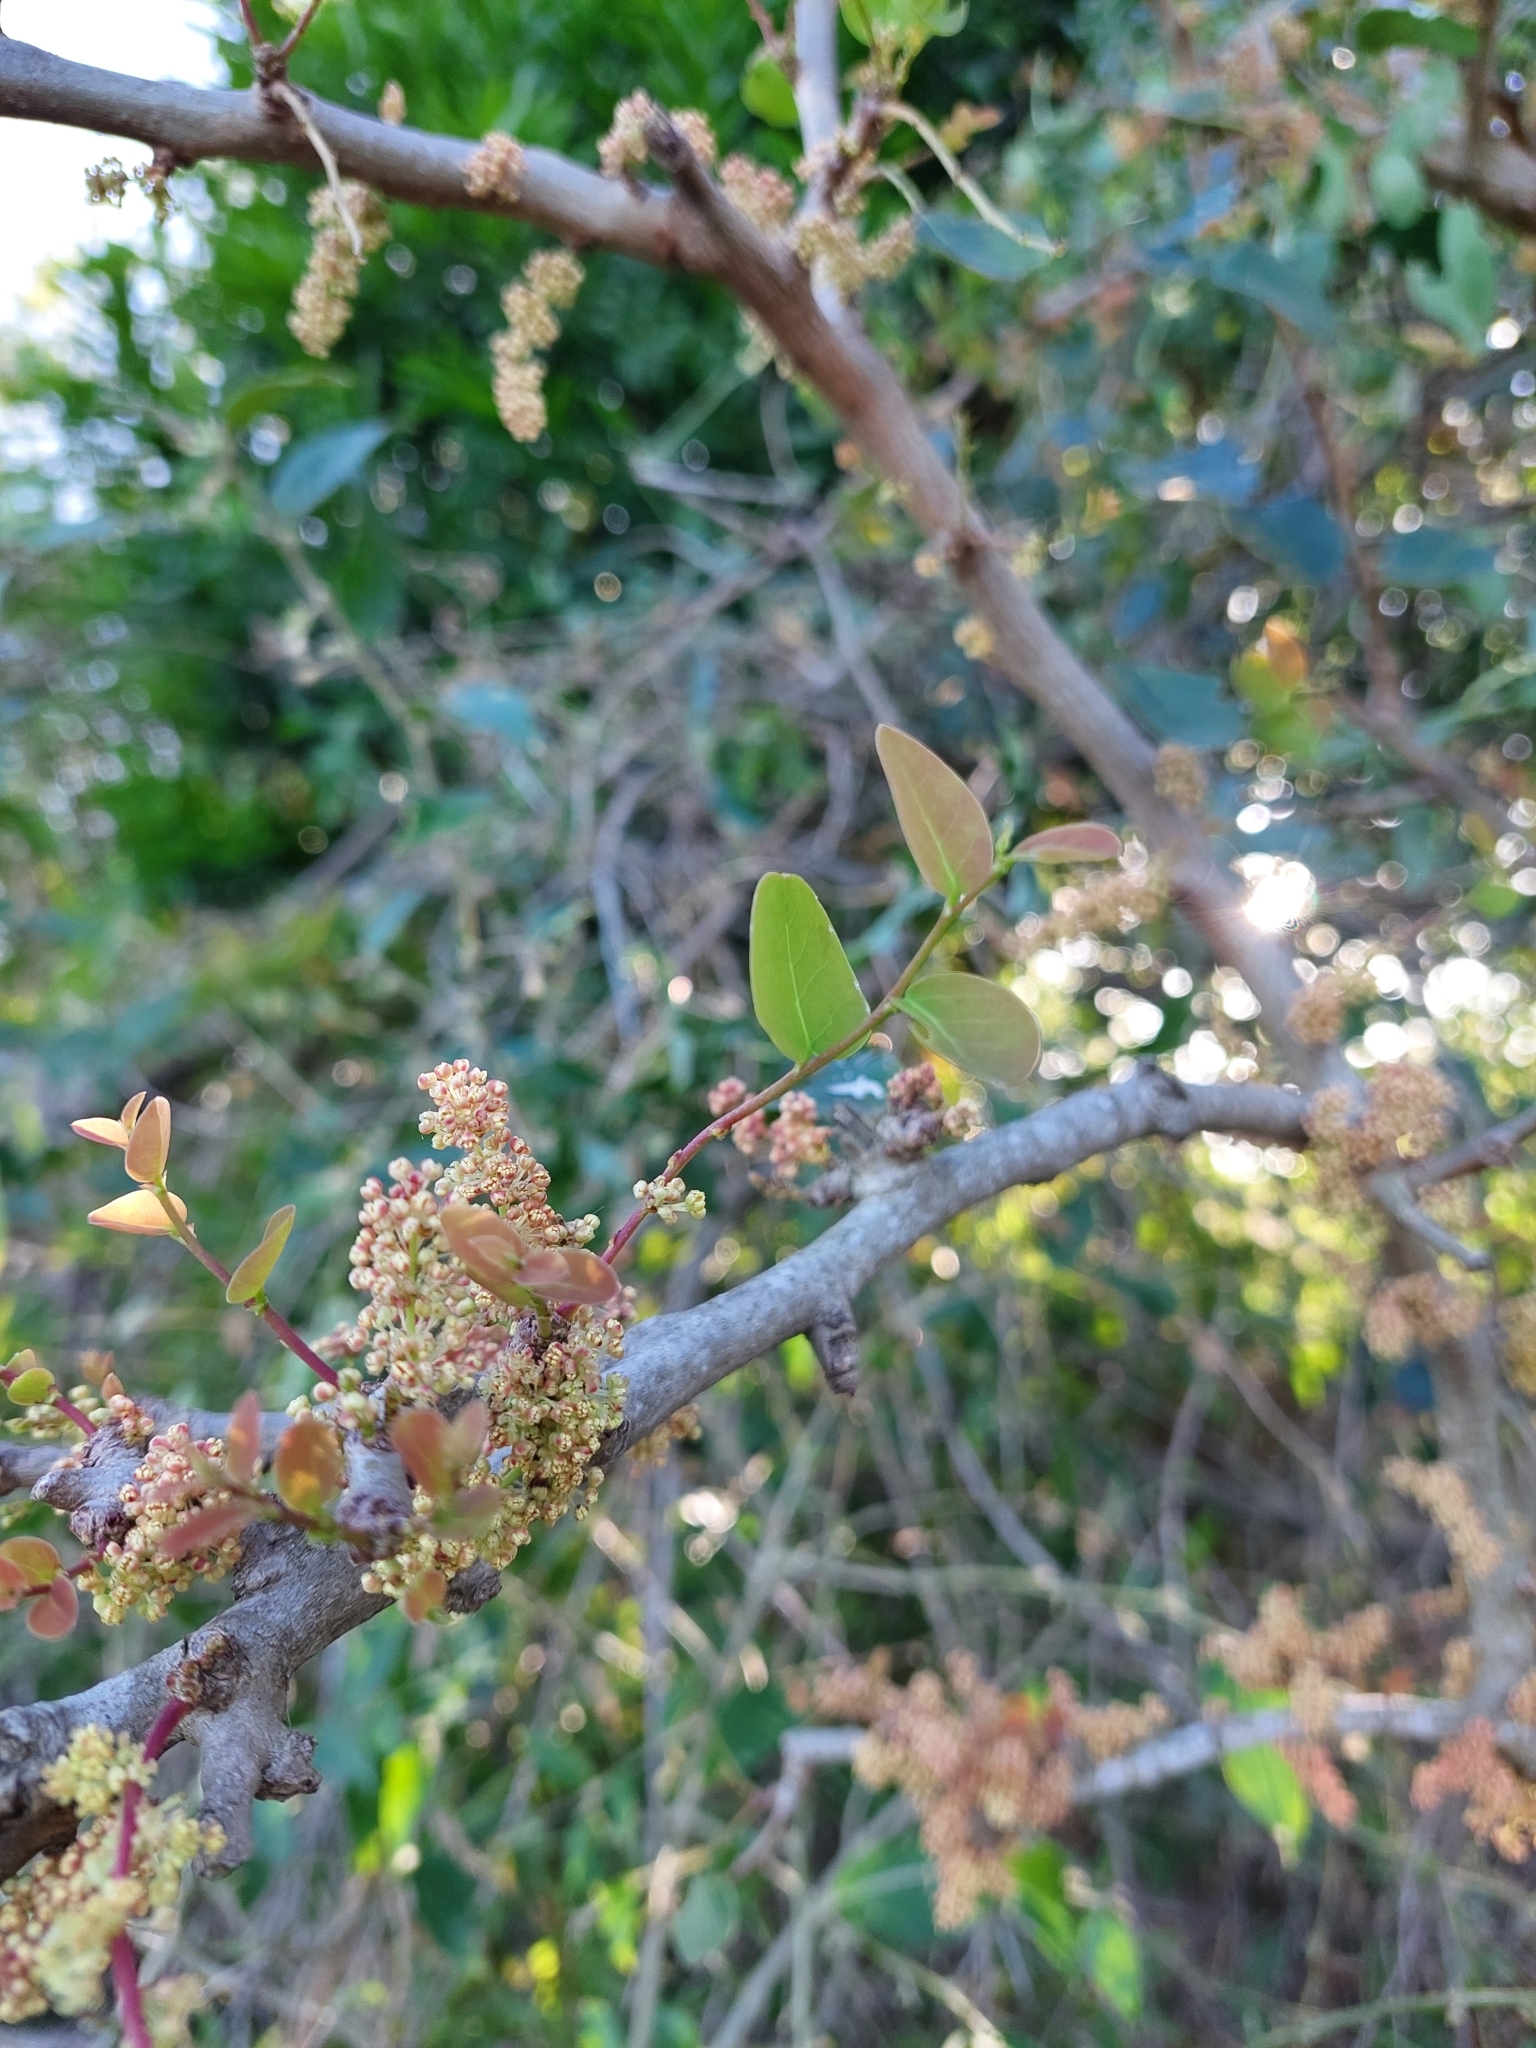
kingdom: Plantae
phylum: Tracheophyta
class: Magnoliopsida
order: Malpighiales
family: Phyllanthaceae
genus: Phyllanthus
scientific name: Phyllanthus chacoensis
